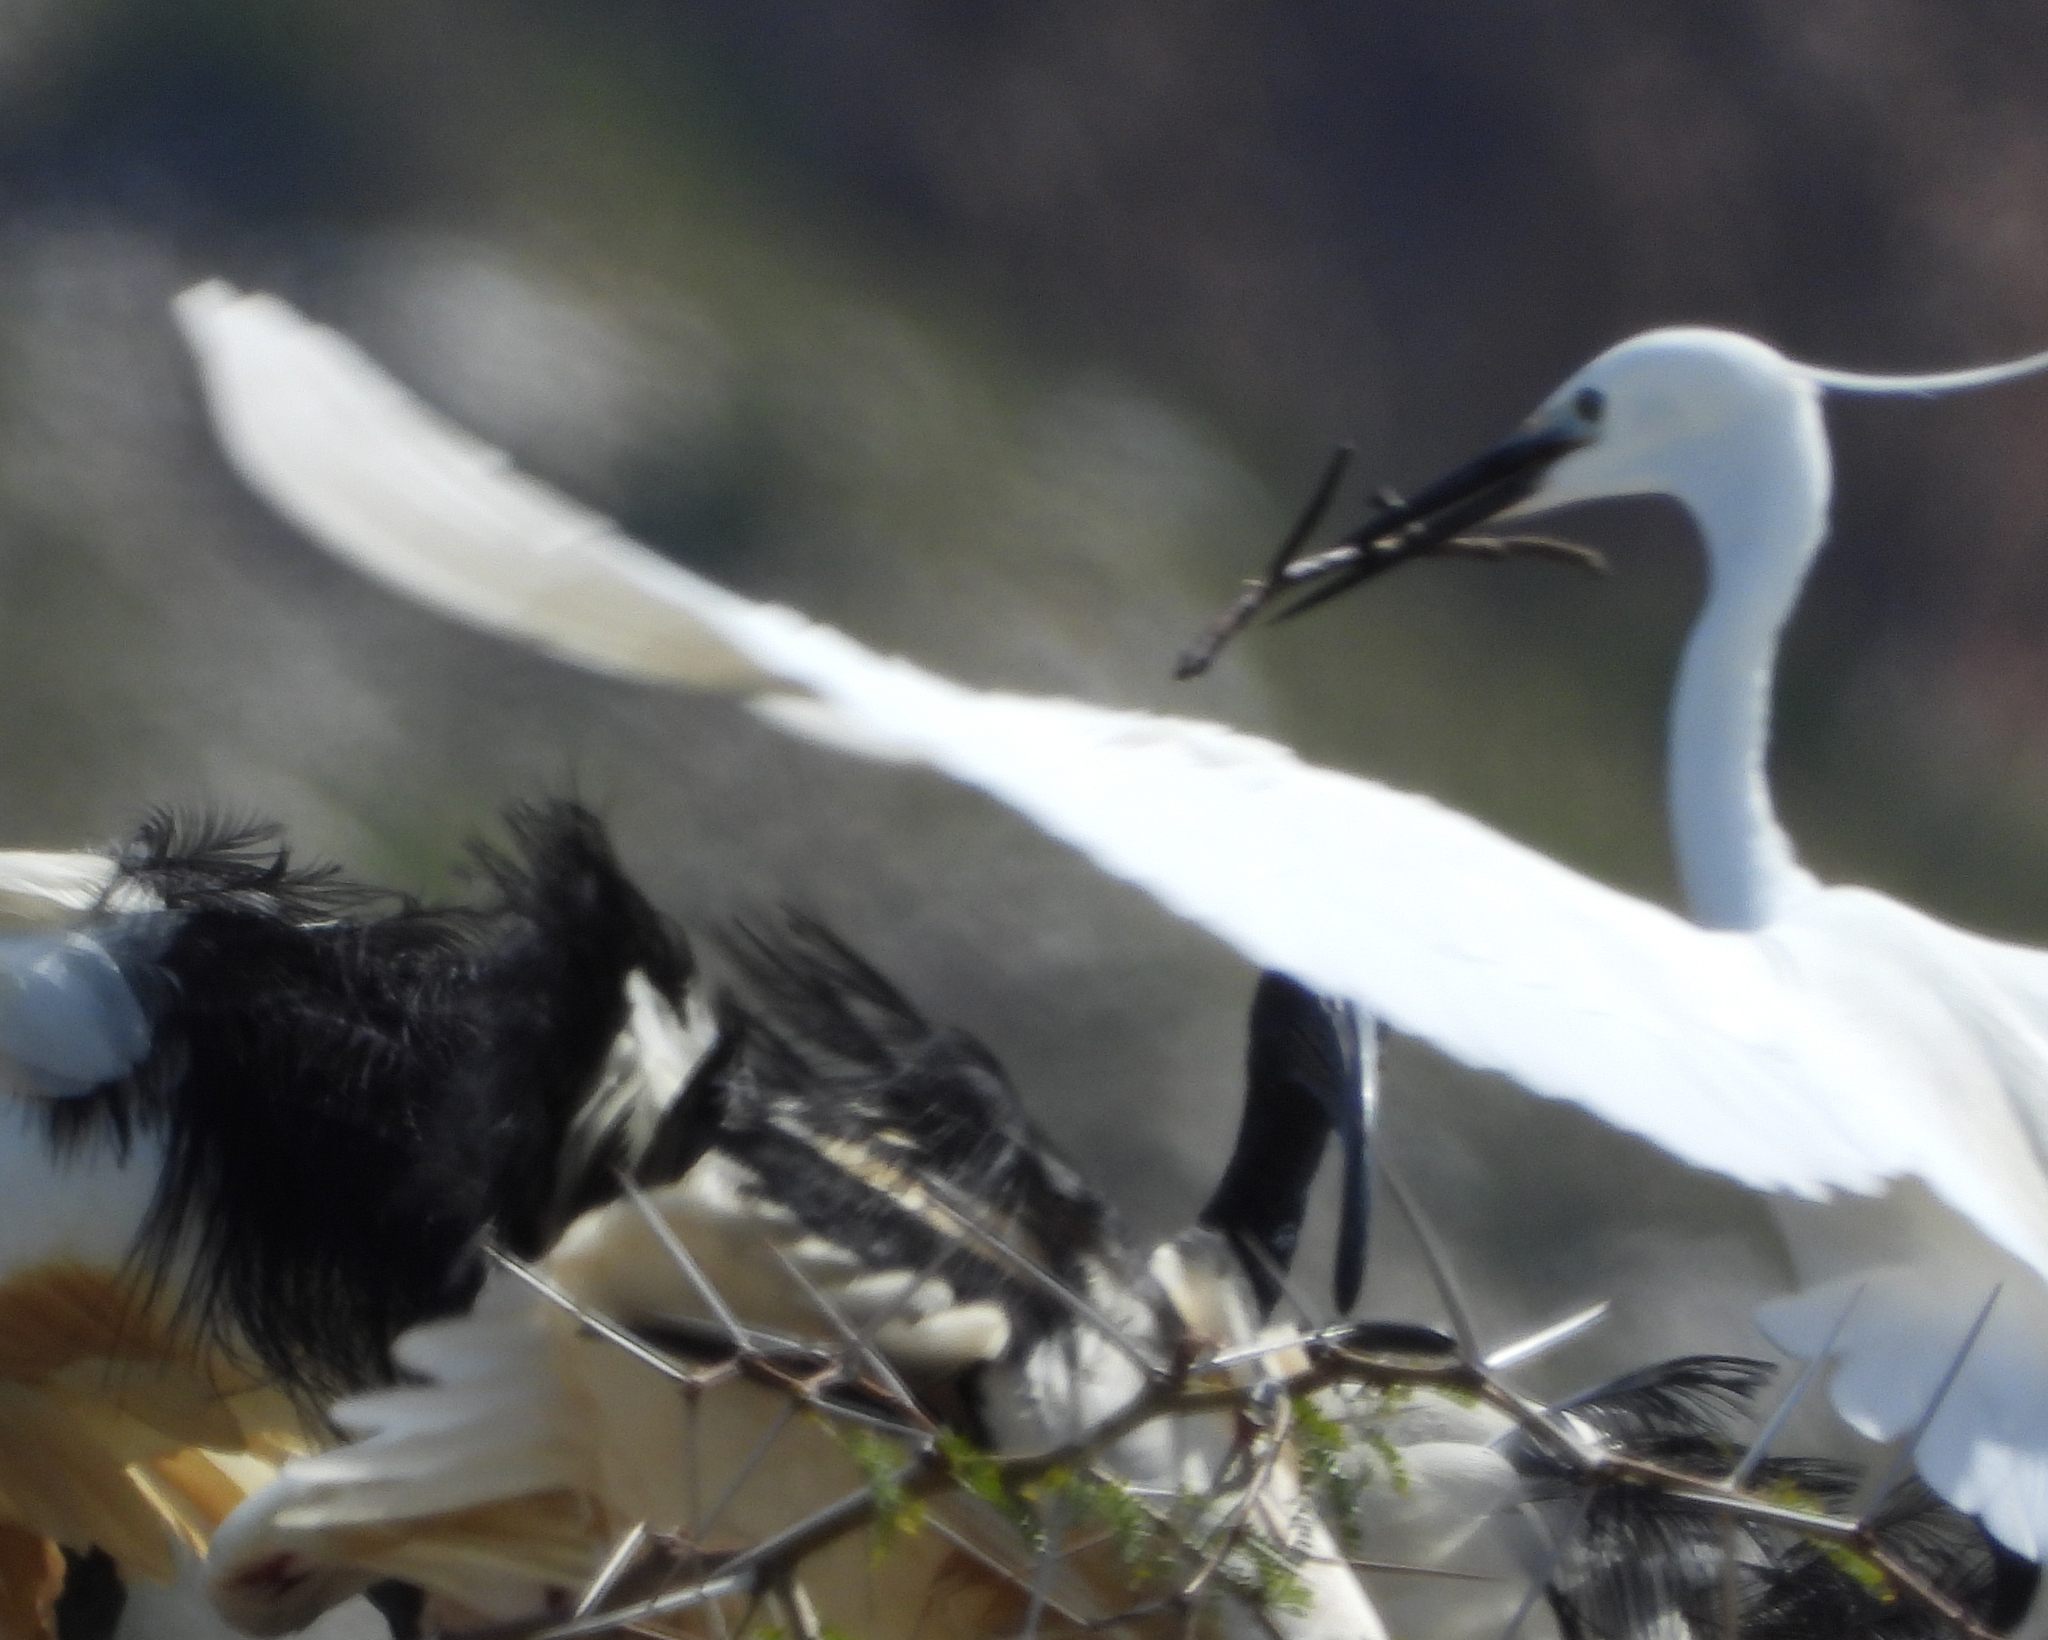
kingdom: Animalia
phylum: Chordata
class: Aves
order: Pelecaniformes
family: Ardeidae
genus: Egretta
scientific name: Egretta garzetta
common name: Little egret
